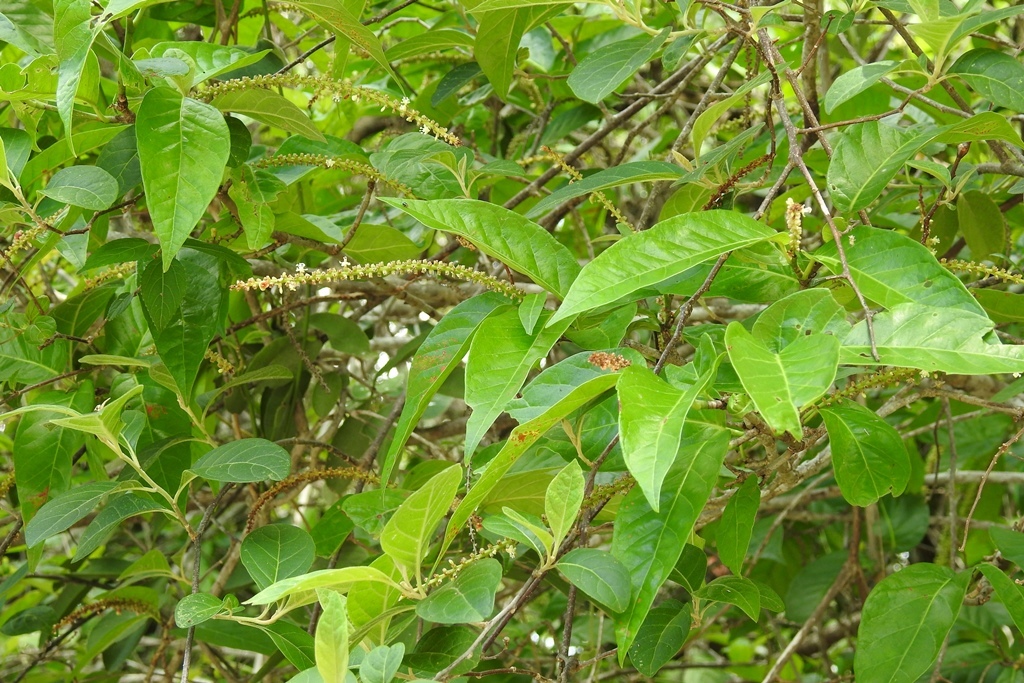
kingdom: Plantae
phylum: Tracheophyta
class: Magnoliopsida
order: Caryophyllales
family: Polygonaceae
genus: Coccoloba
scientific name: Coccoloba floresii
